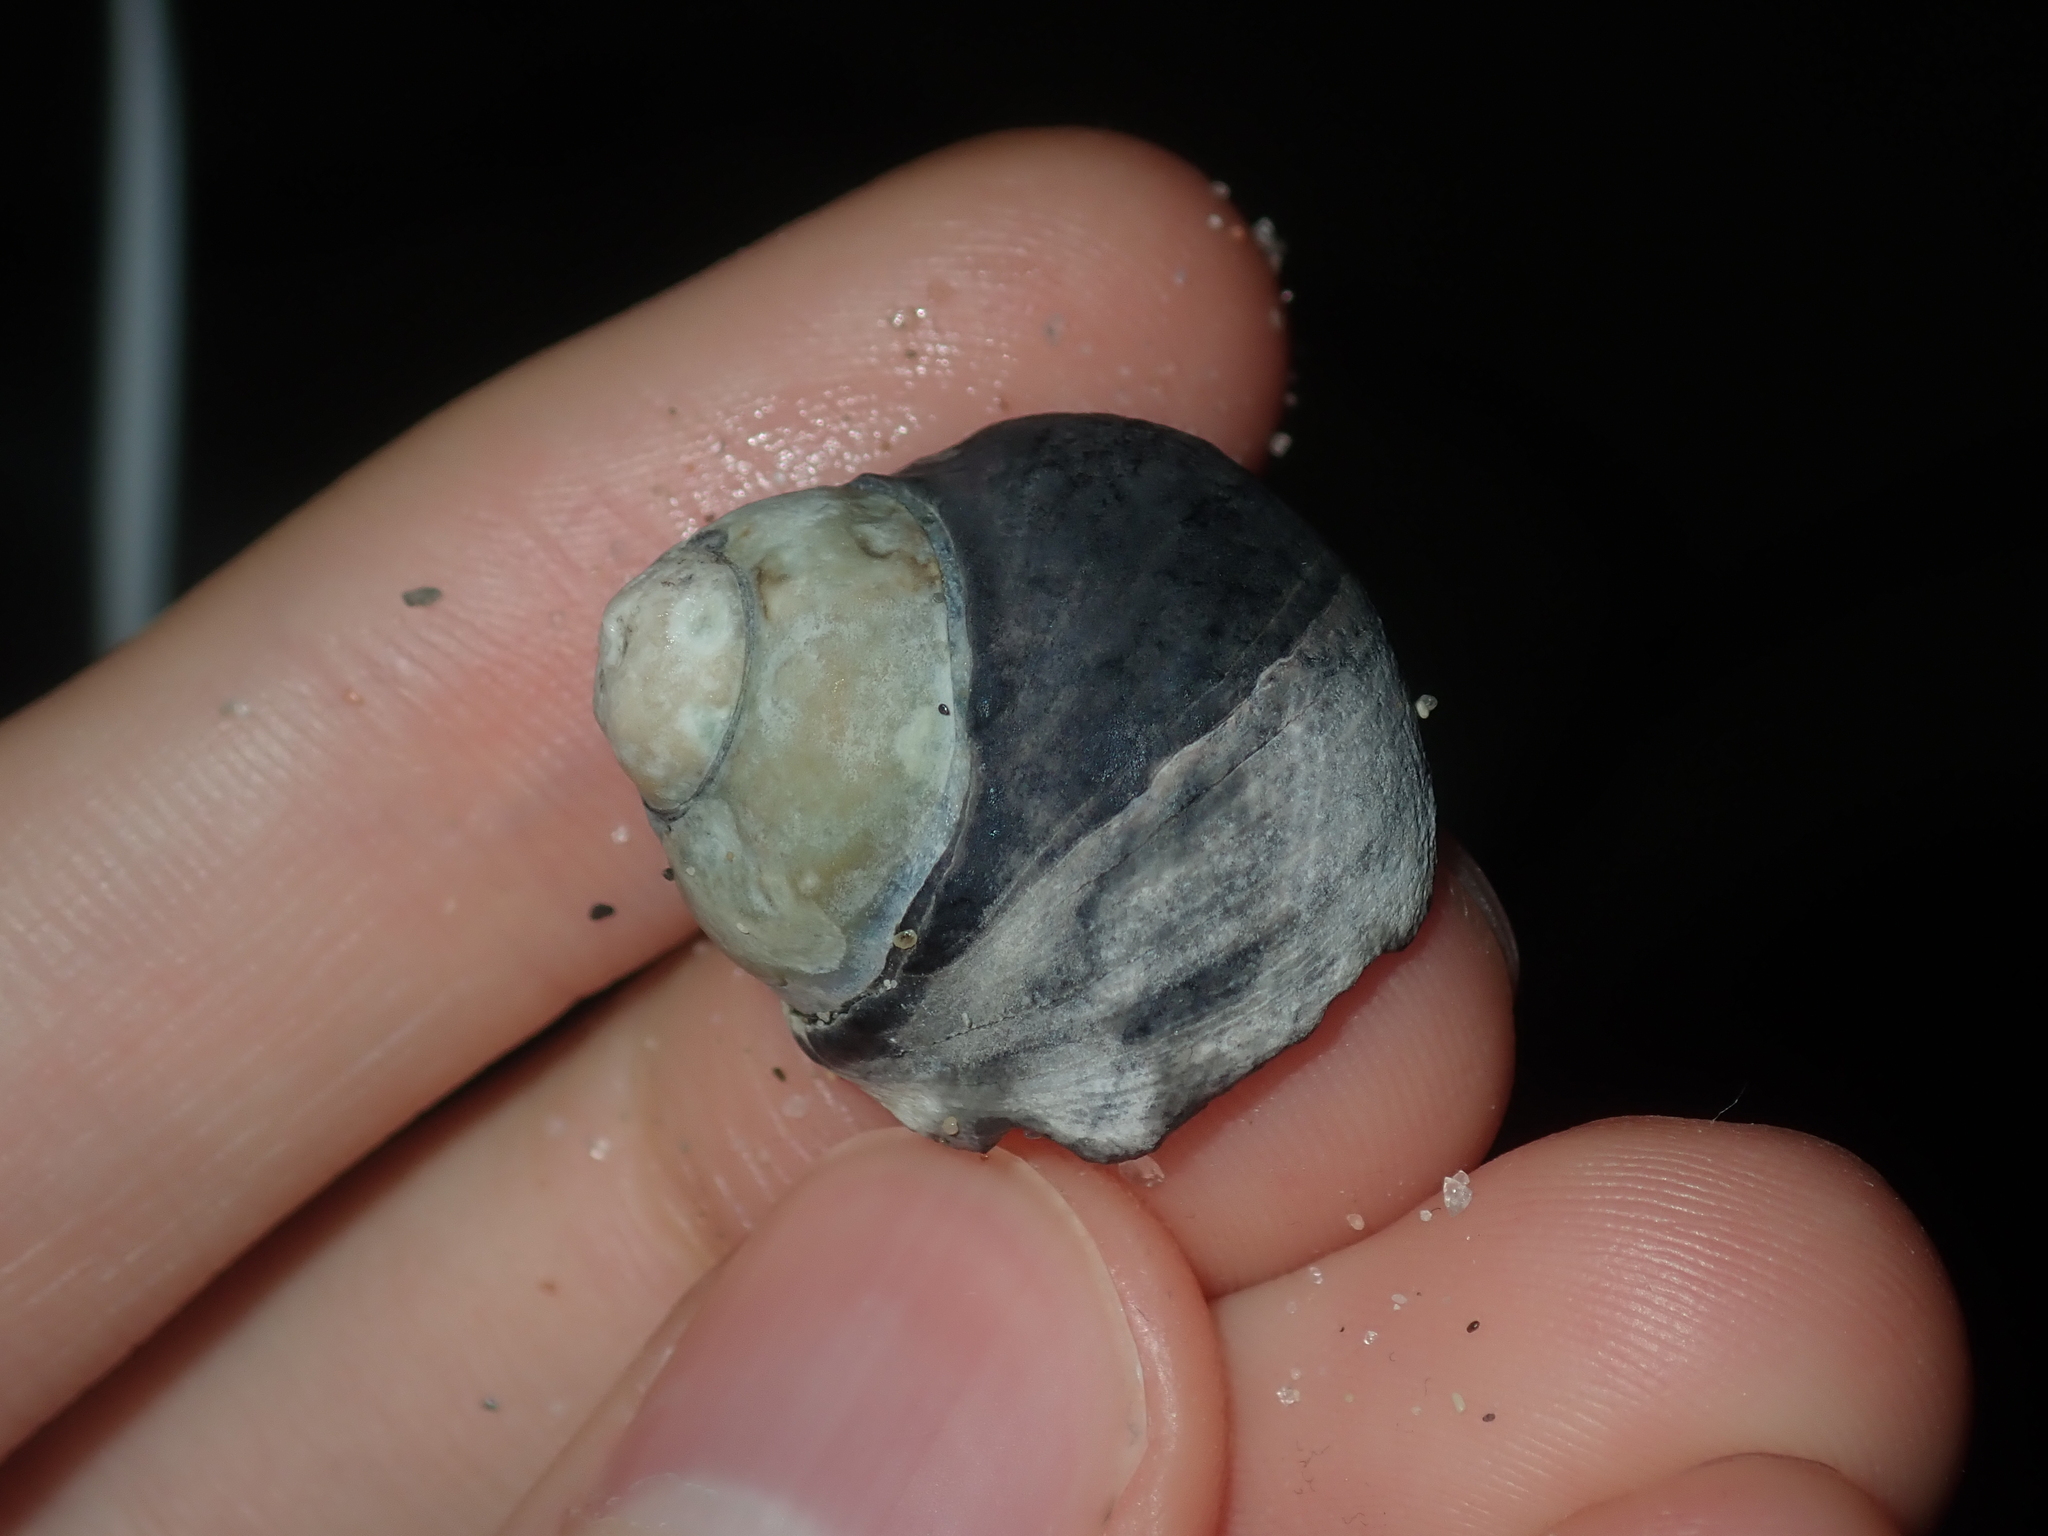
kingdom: Animalia
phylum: Mollusca
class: Gastropoda
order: Trochida
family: Trochidae
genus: Austrocochlea
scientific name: Austrocochlea rudis
